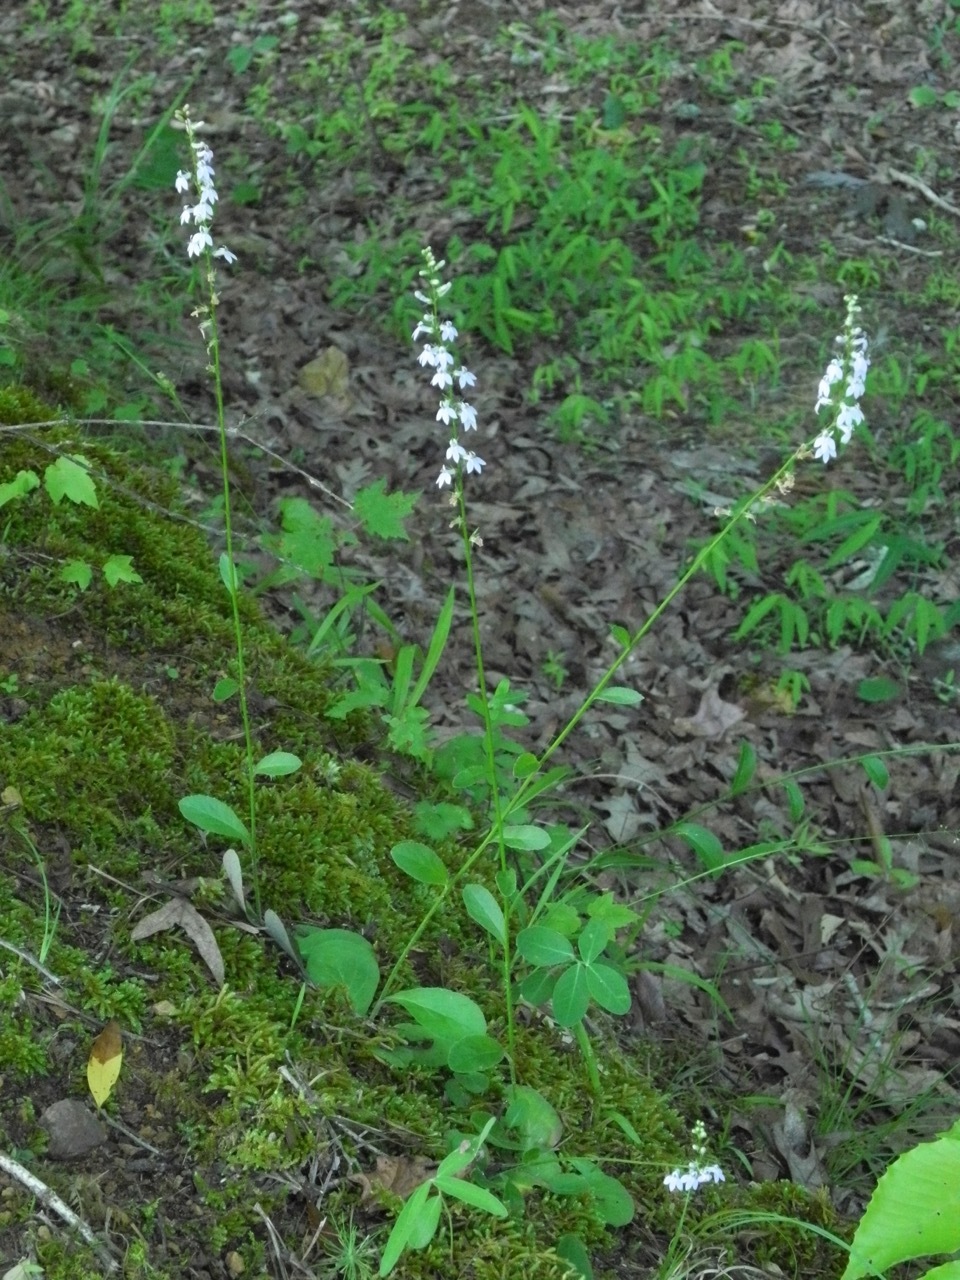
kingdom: Plantae
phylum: Tracheophyta
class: Magnoliopsida
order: Asterales
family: Campanulaceae
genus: Lobelia
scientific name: Lobelia spicata
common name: Pale-spike lobelia
